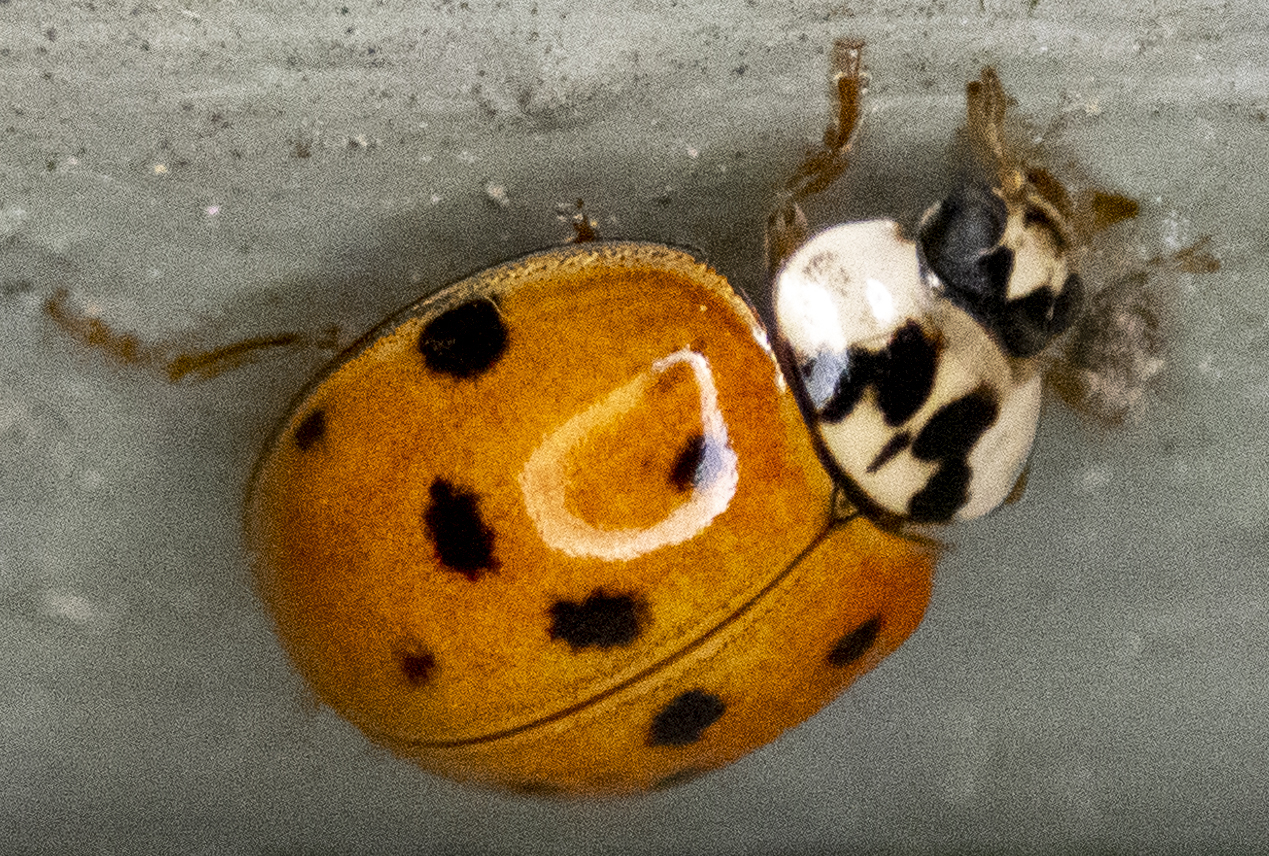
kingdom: Animalia
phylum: Arthropoda
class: Insecta
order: Coleoptera
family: Coccinellidae
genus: Harmonia
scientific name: Harmonia axyridis
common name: Harlequin ladybird
